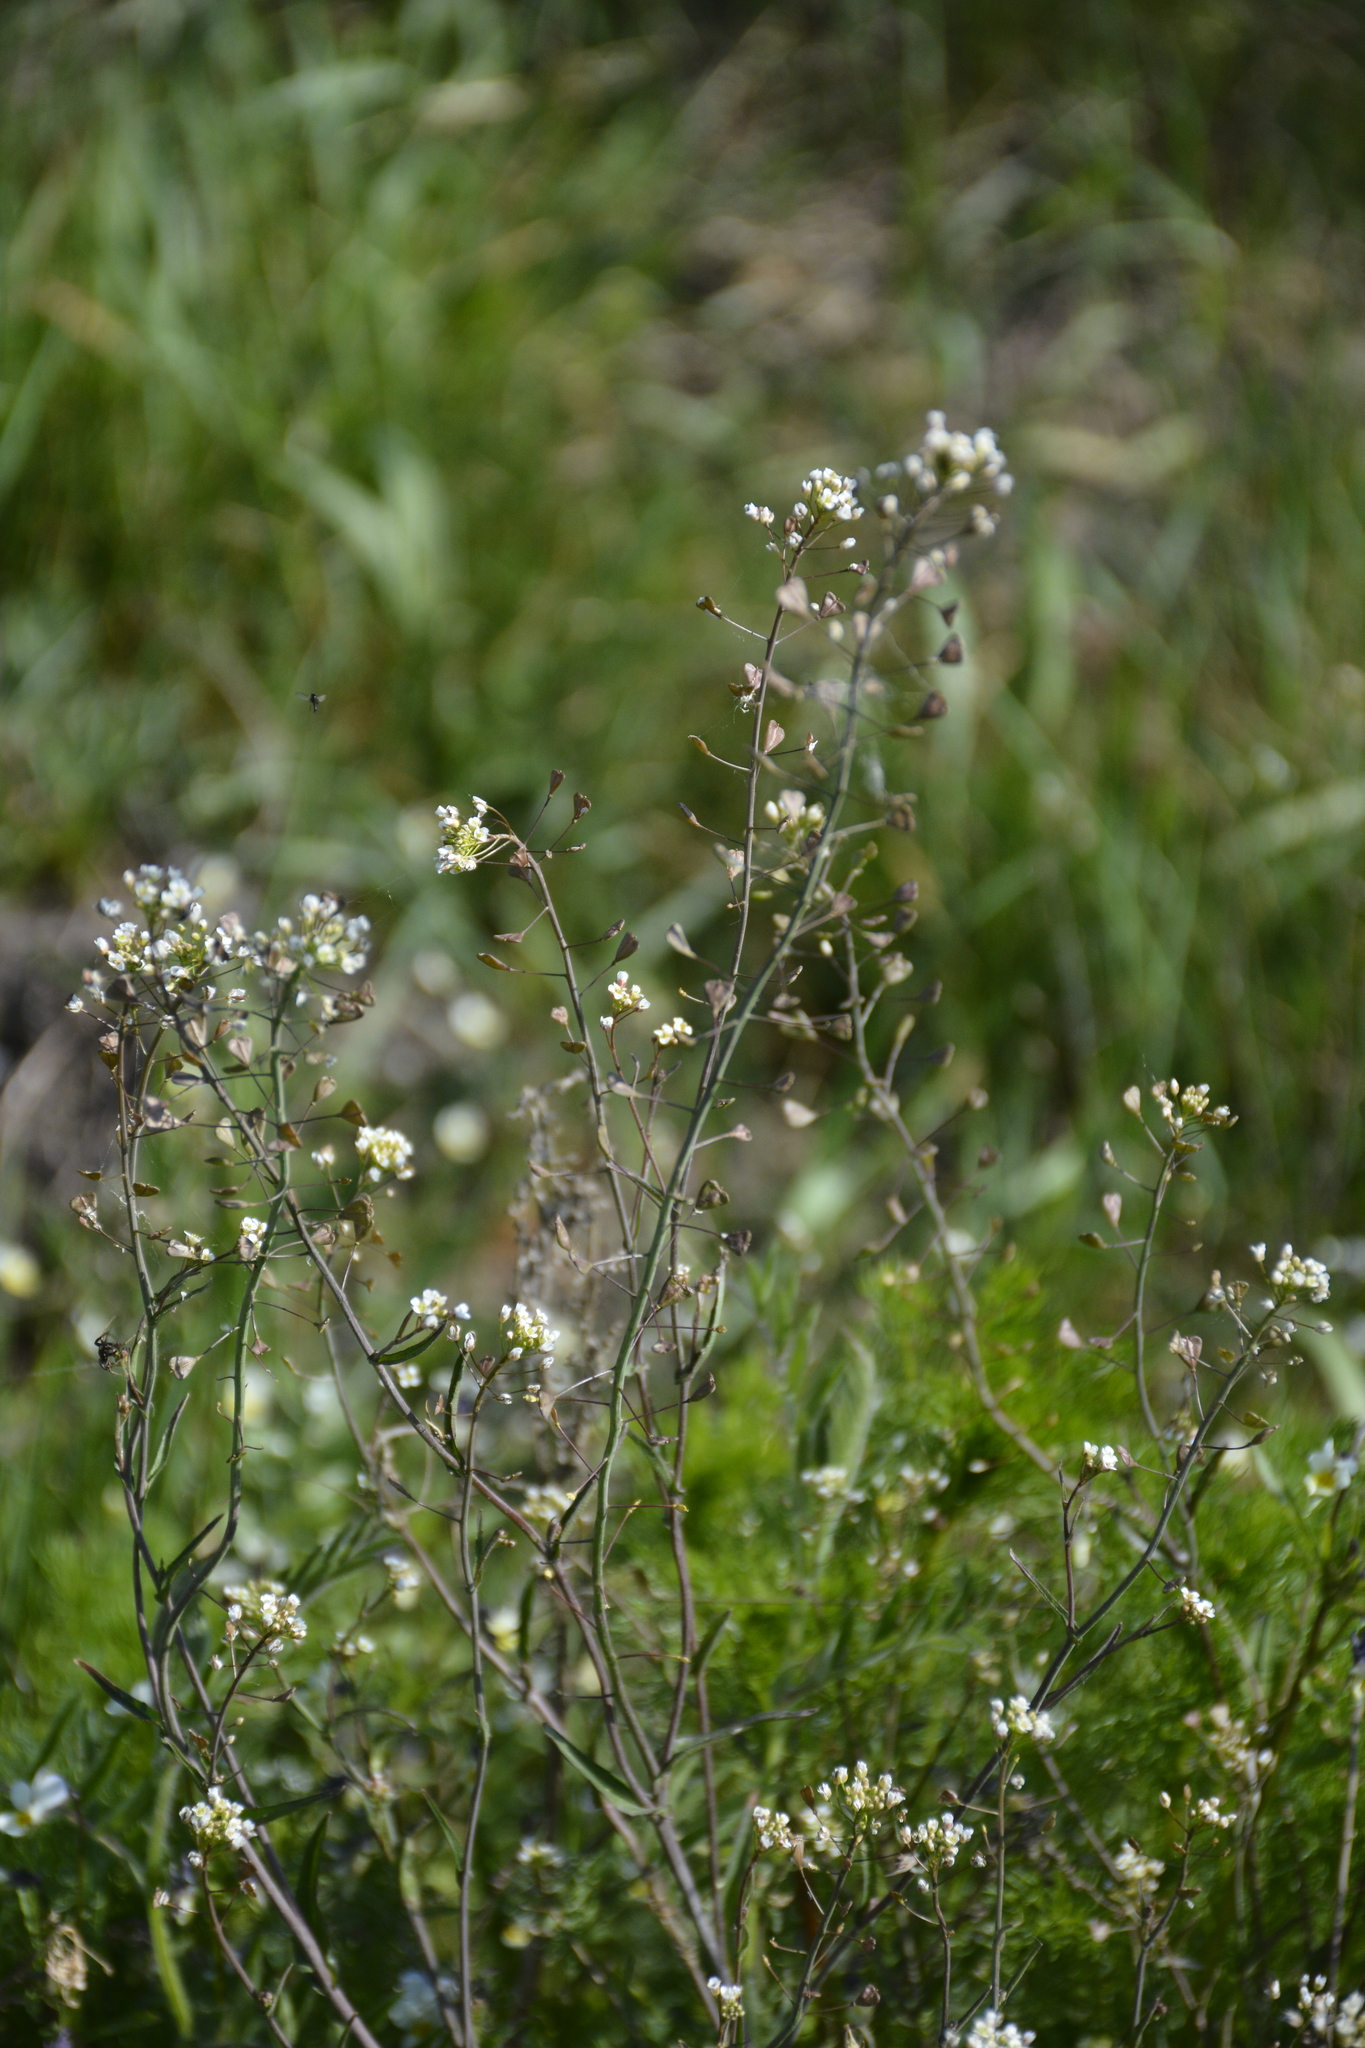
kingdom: Plantae
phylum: Tracheophyta
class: Magnoliopsida
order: Brassicales
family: Brassicaceae
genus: Capsella
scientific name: Capsella bursa-pastoris
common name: Shepherd's purse
